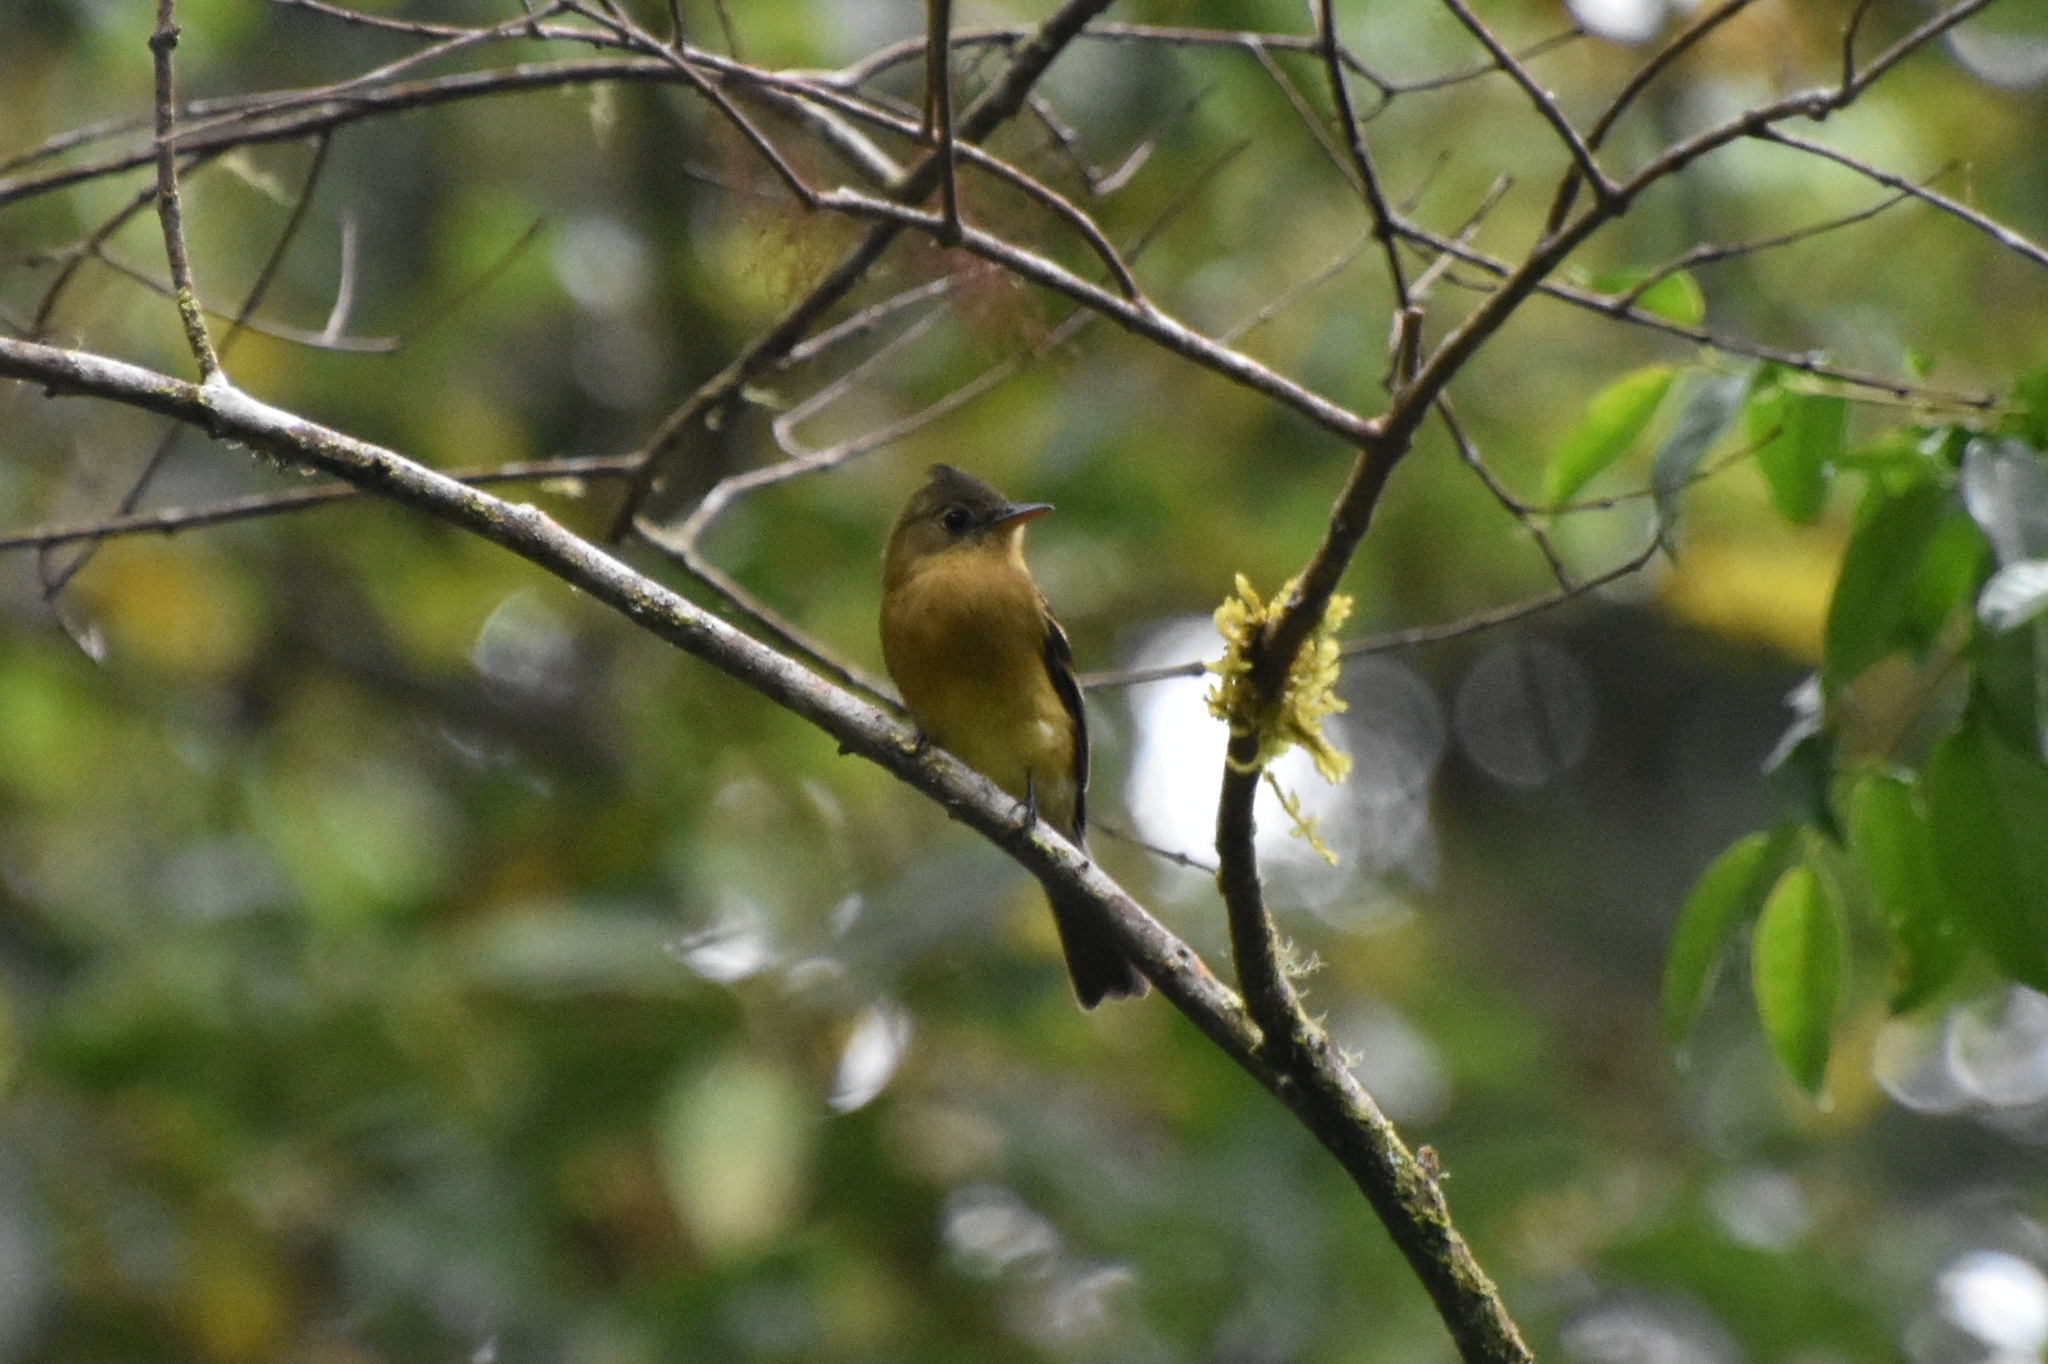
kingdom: Animalia
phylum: Chordata
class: Aves
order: Passeriformes
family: Tyrannidae
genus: Mitrephanes
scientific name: Mitrephanes phaeocercus
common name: Northern tufted flycatcher
